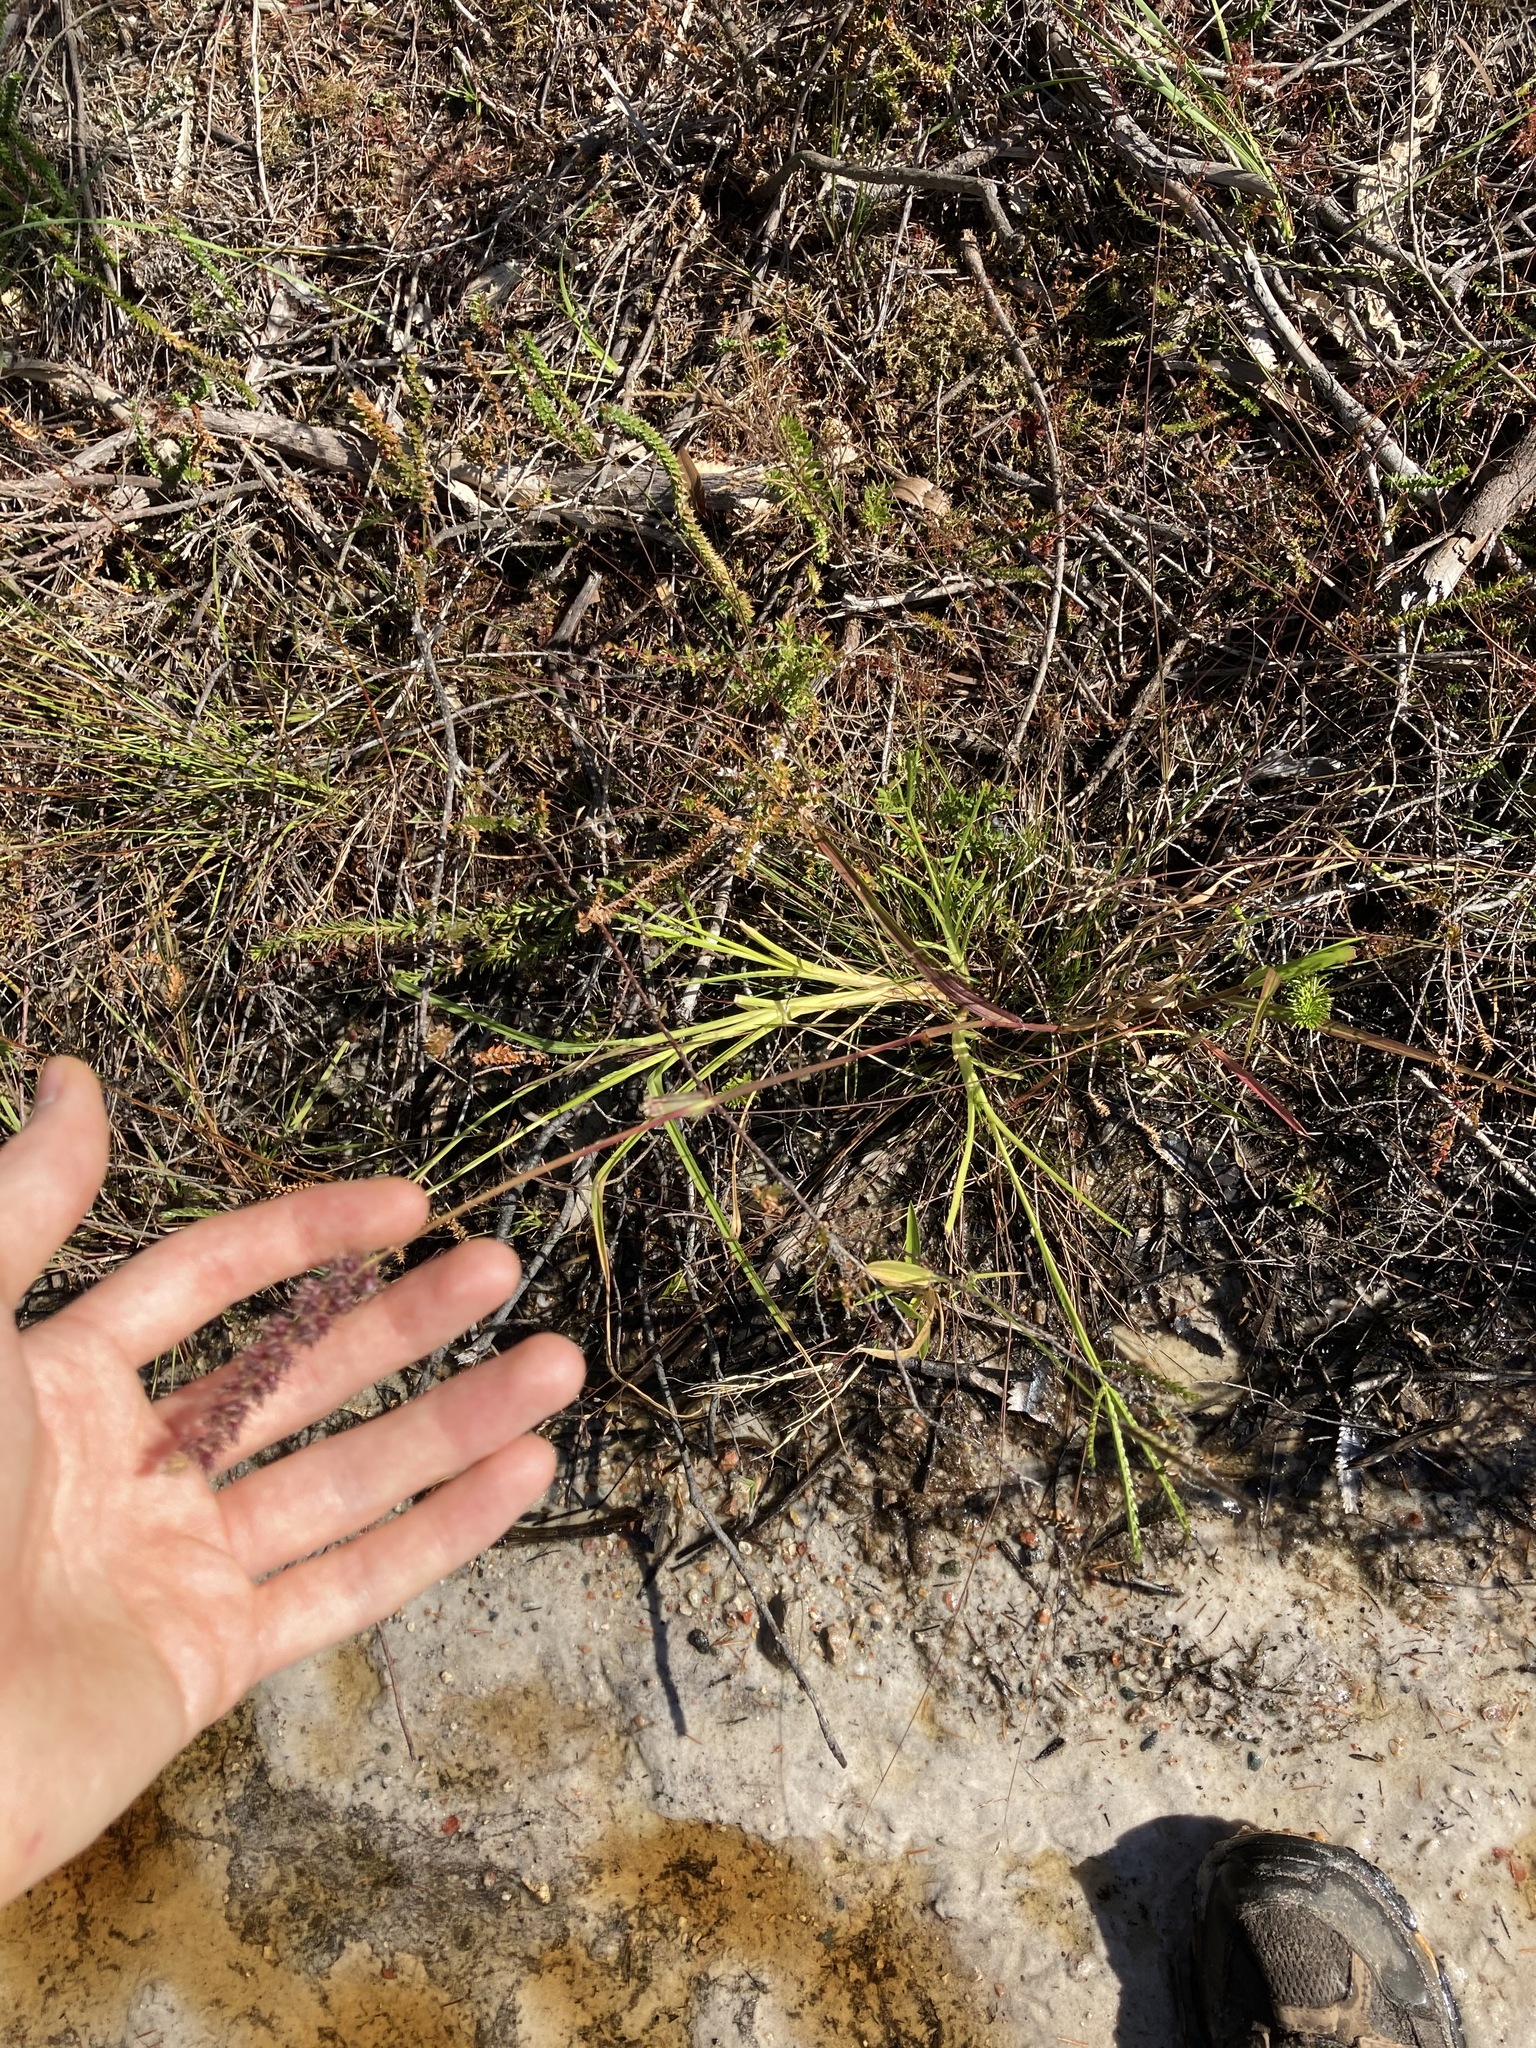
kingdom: Plantae
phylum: Tracheophyta
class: Liliopsida
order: Poales
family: Poaceae
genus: Cenchrus
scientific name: Cenchrus echinatus
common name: Southern sandbur
